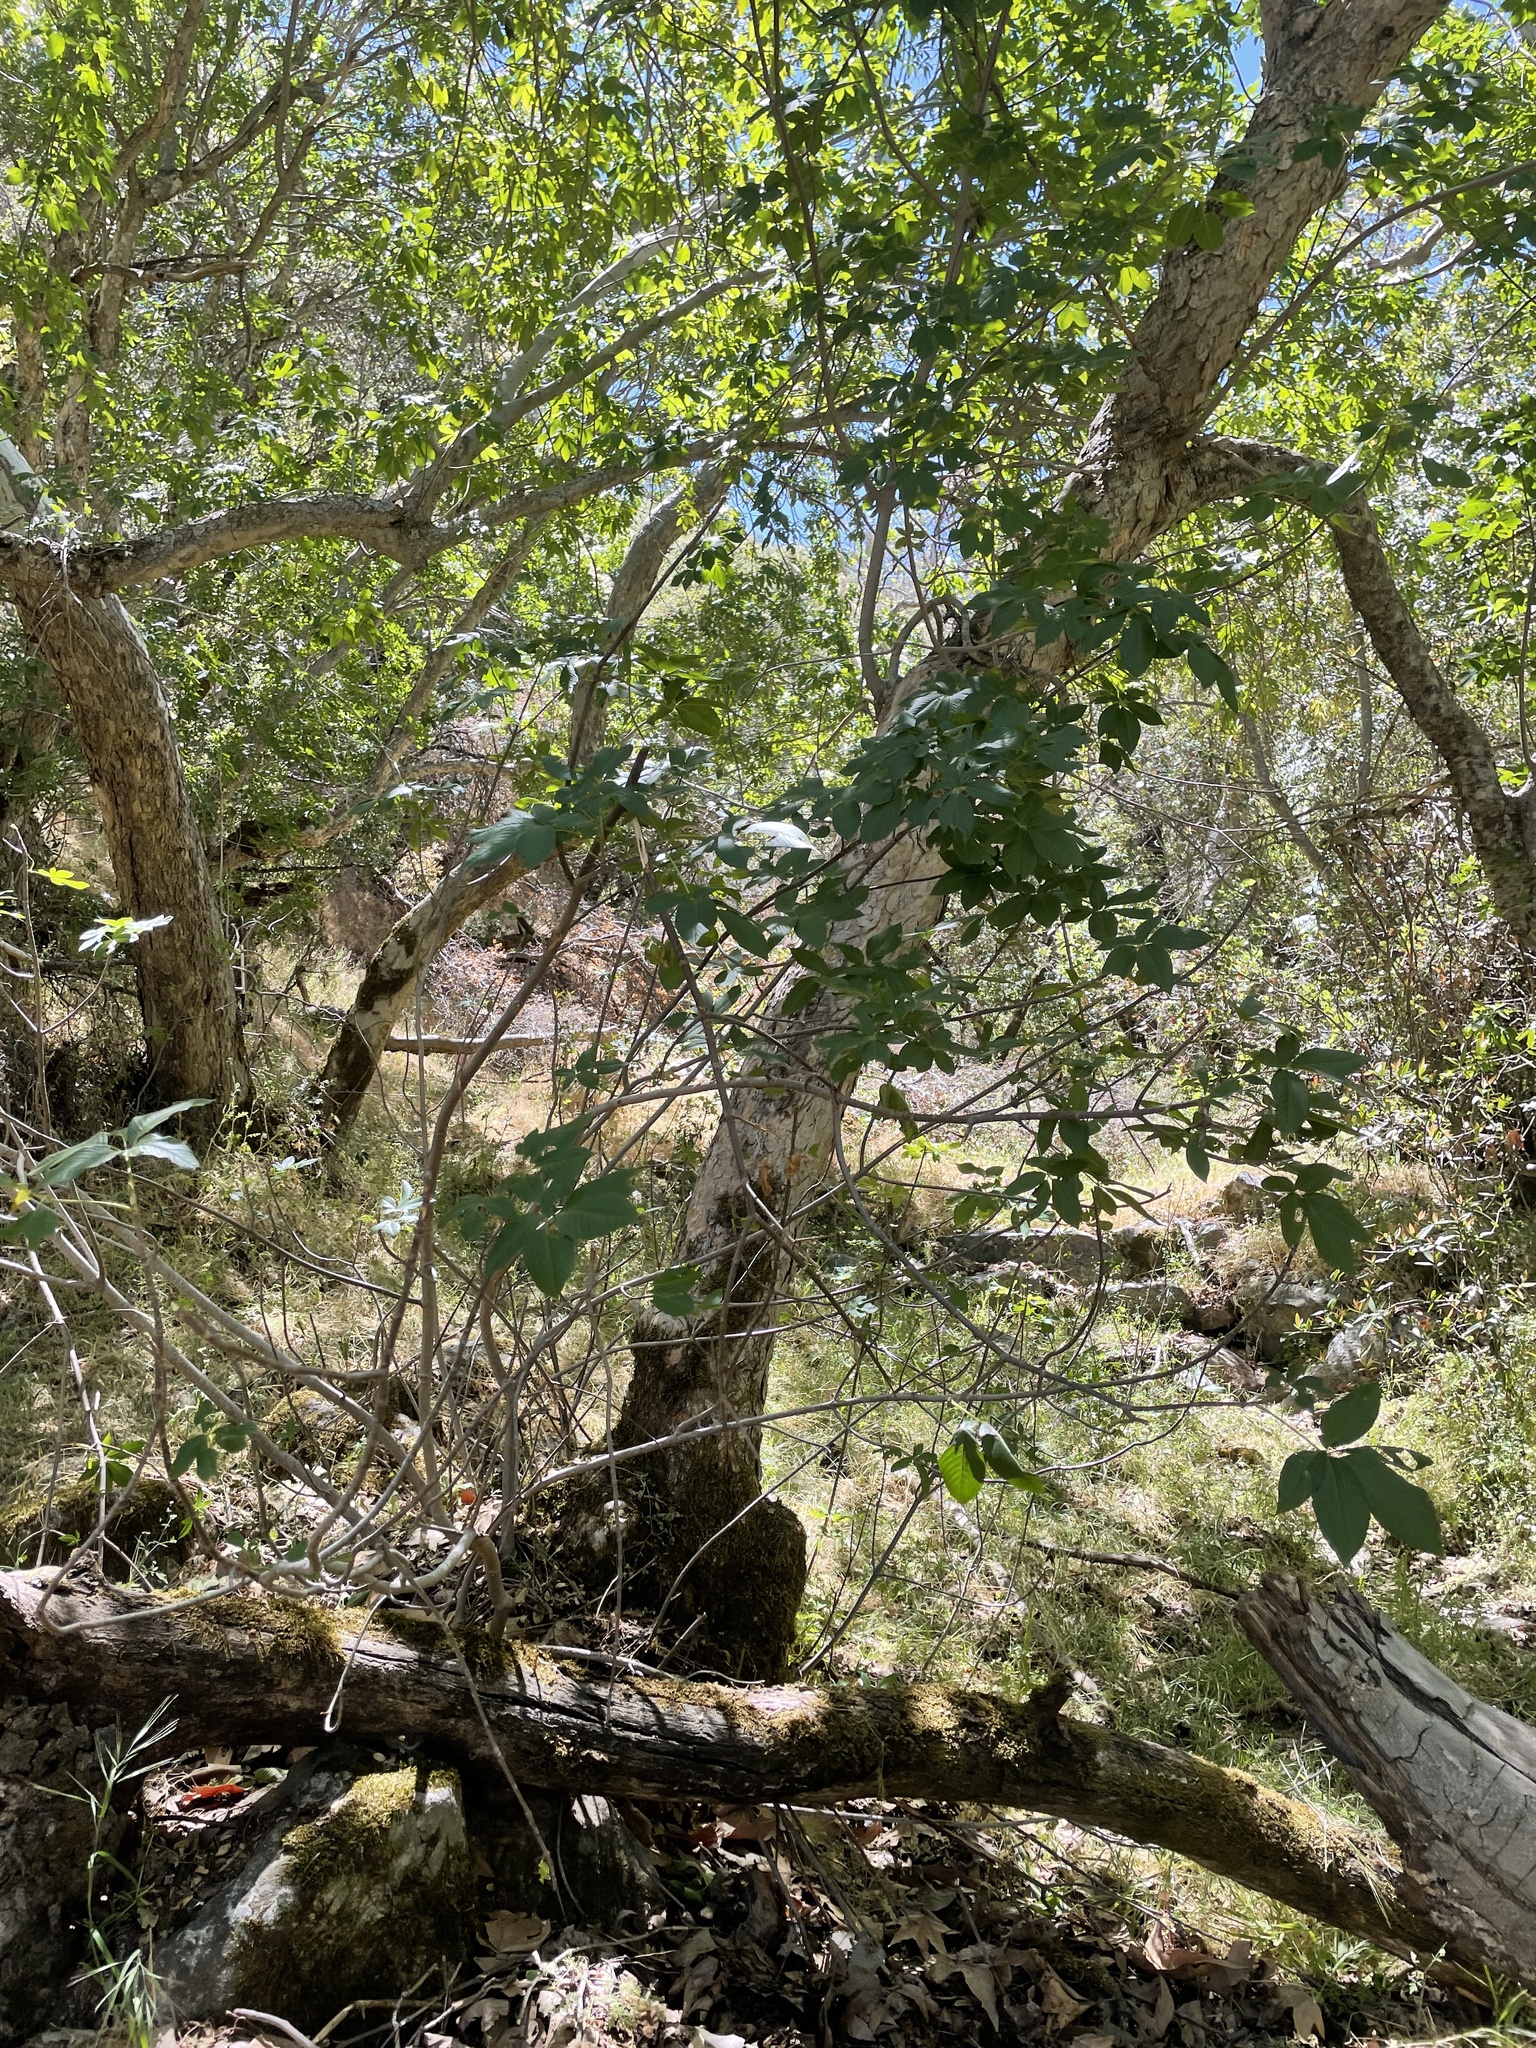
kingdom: Plantae
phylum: Tracheophyta
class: Magnoliopsida
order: Sapindales
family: Sapindaceae
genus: Aesculus
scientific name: Aesculus californica
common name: California buckeye
